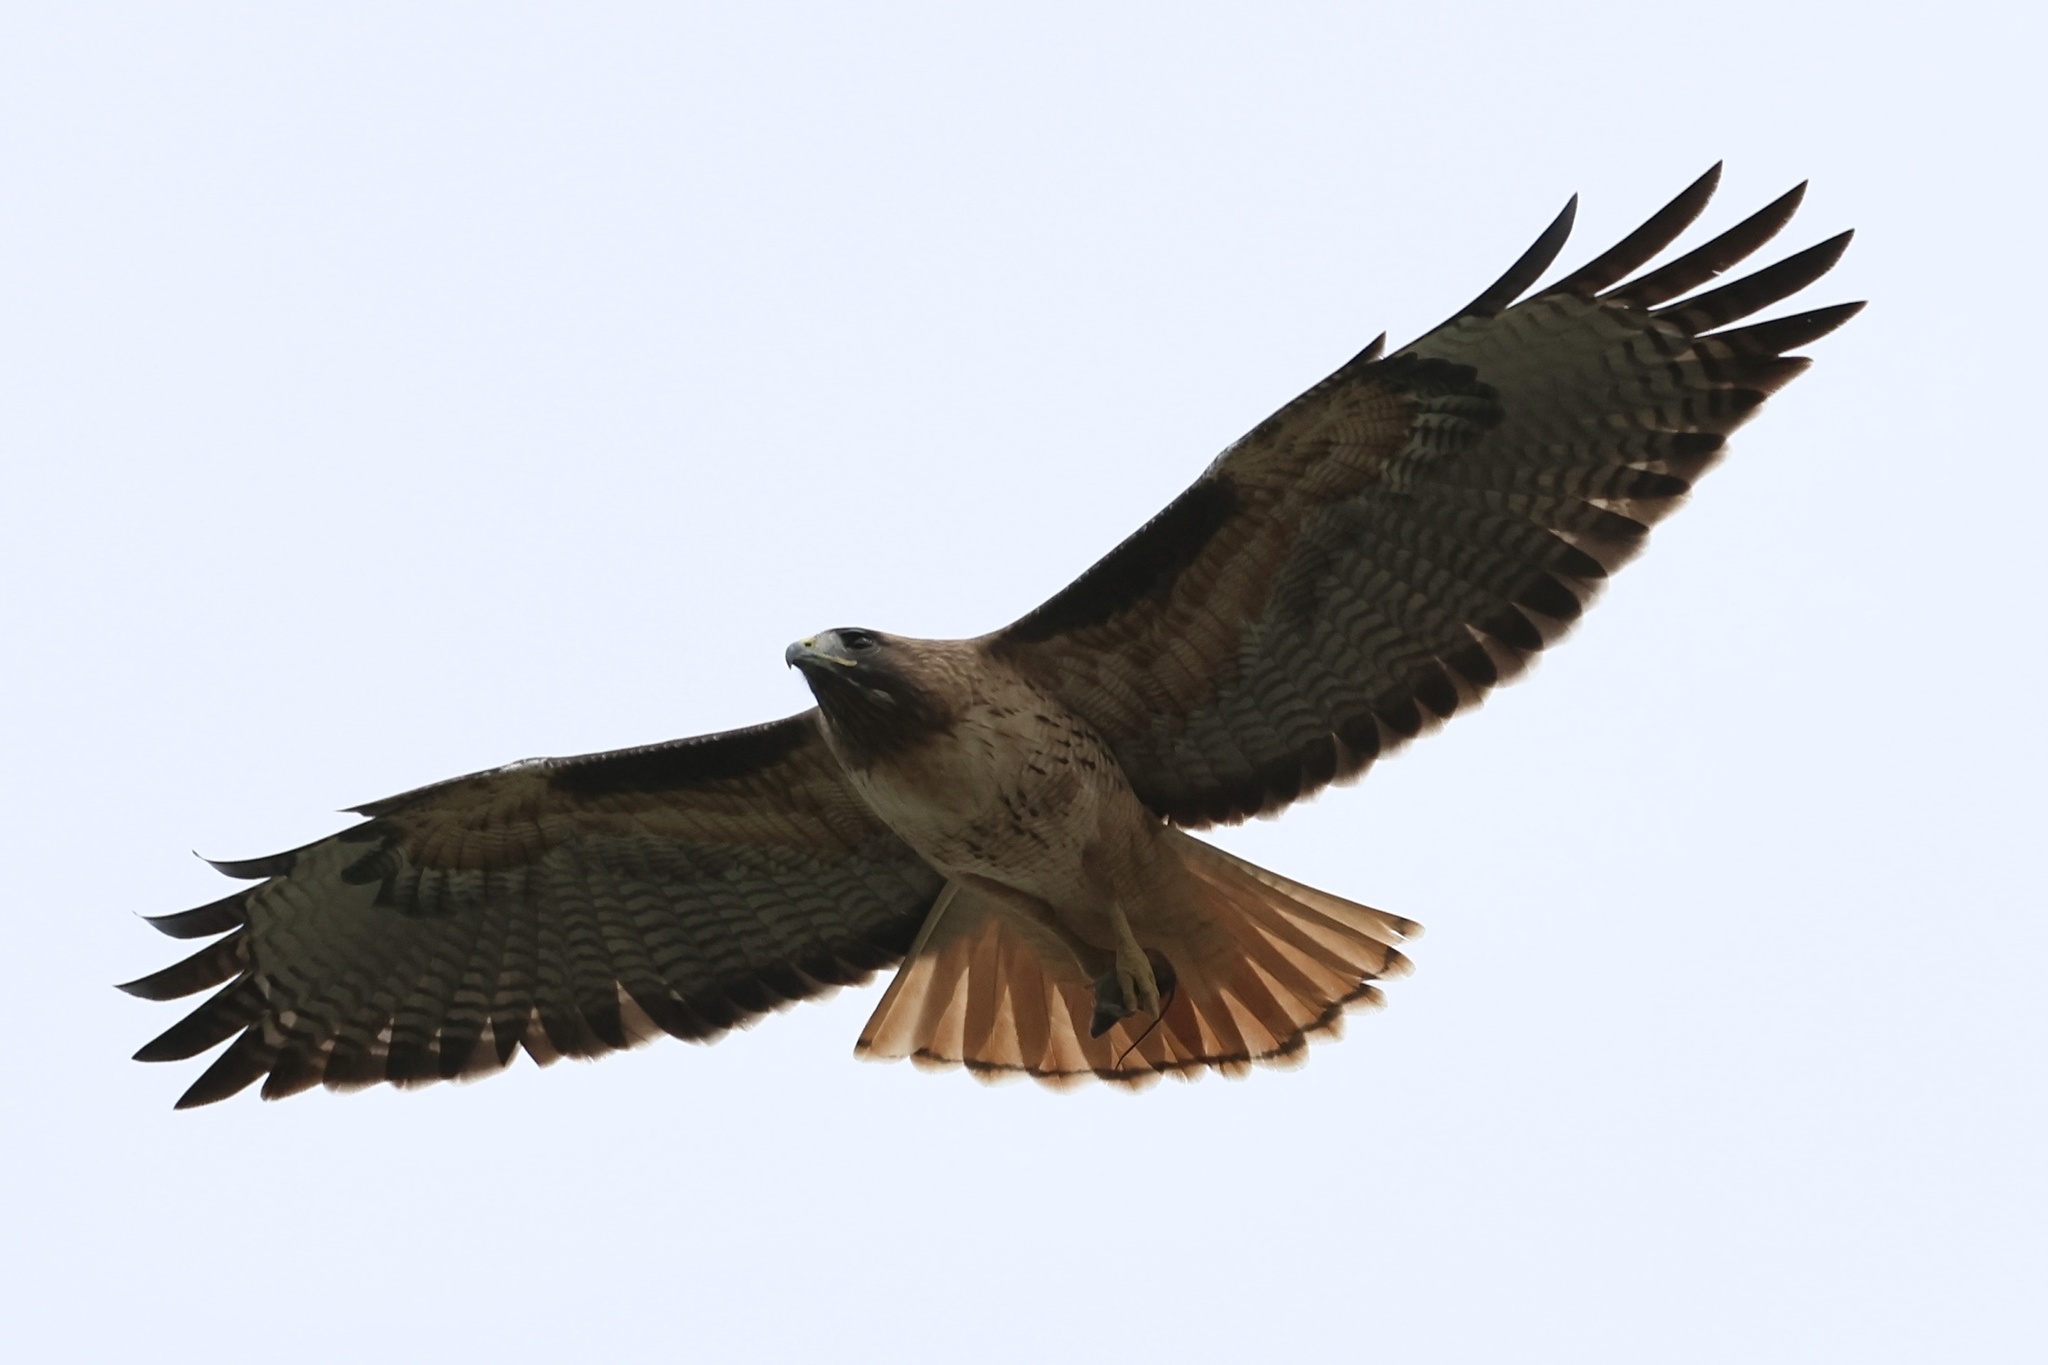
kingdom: Animalia
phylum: Chordata
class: Aves
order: Accipitriformes
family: Accipitridae
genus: Buteo
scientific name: Buteo jamaicensis
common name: Red-tailed hawk
